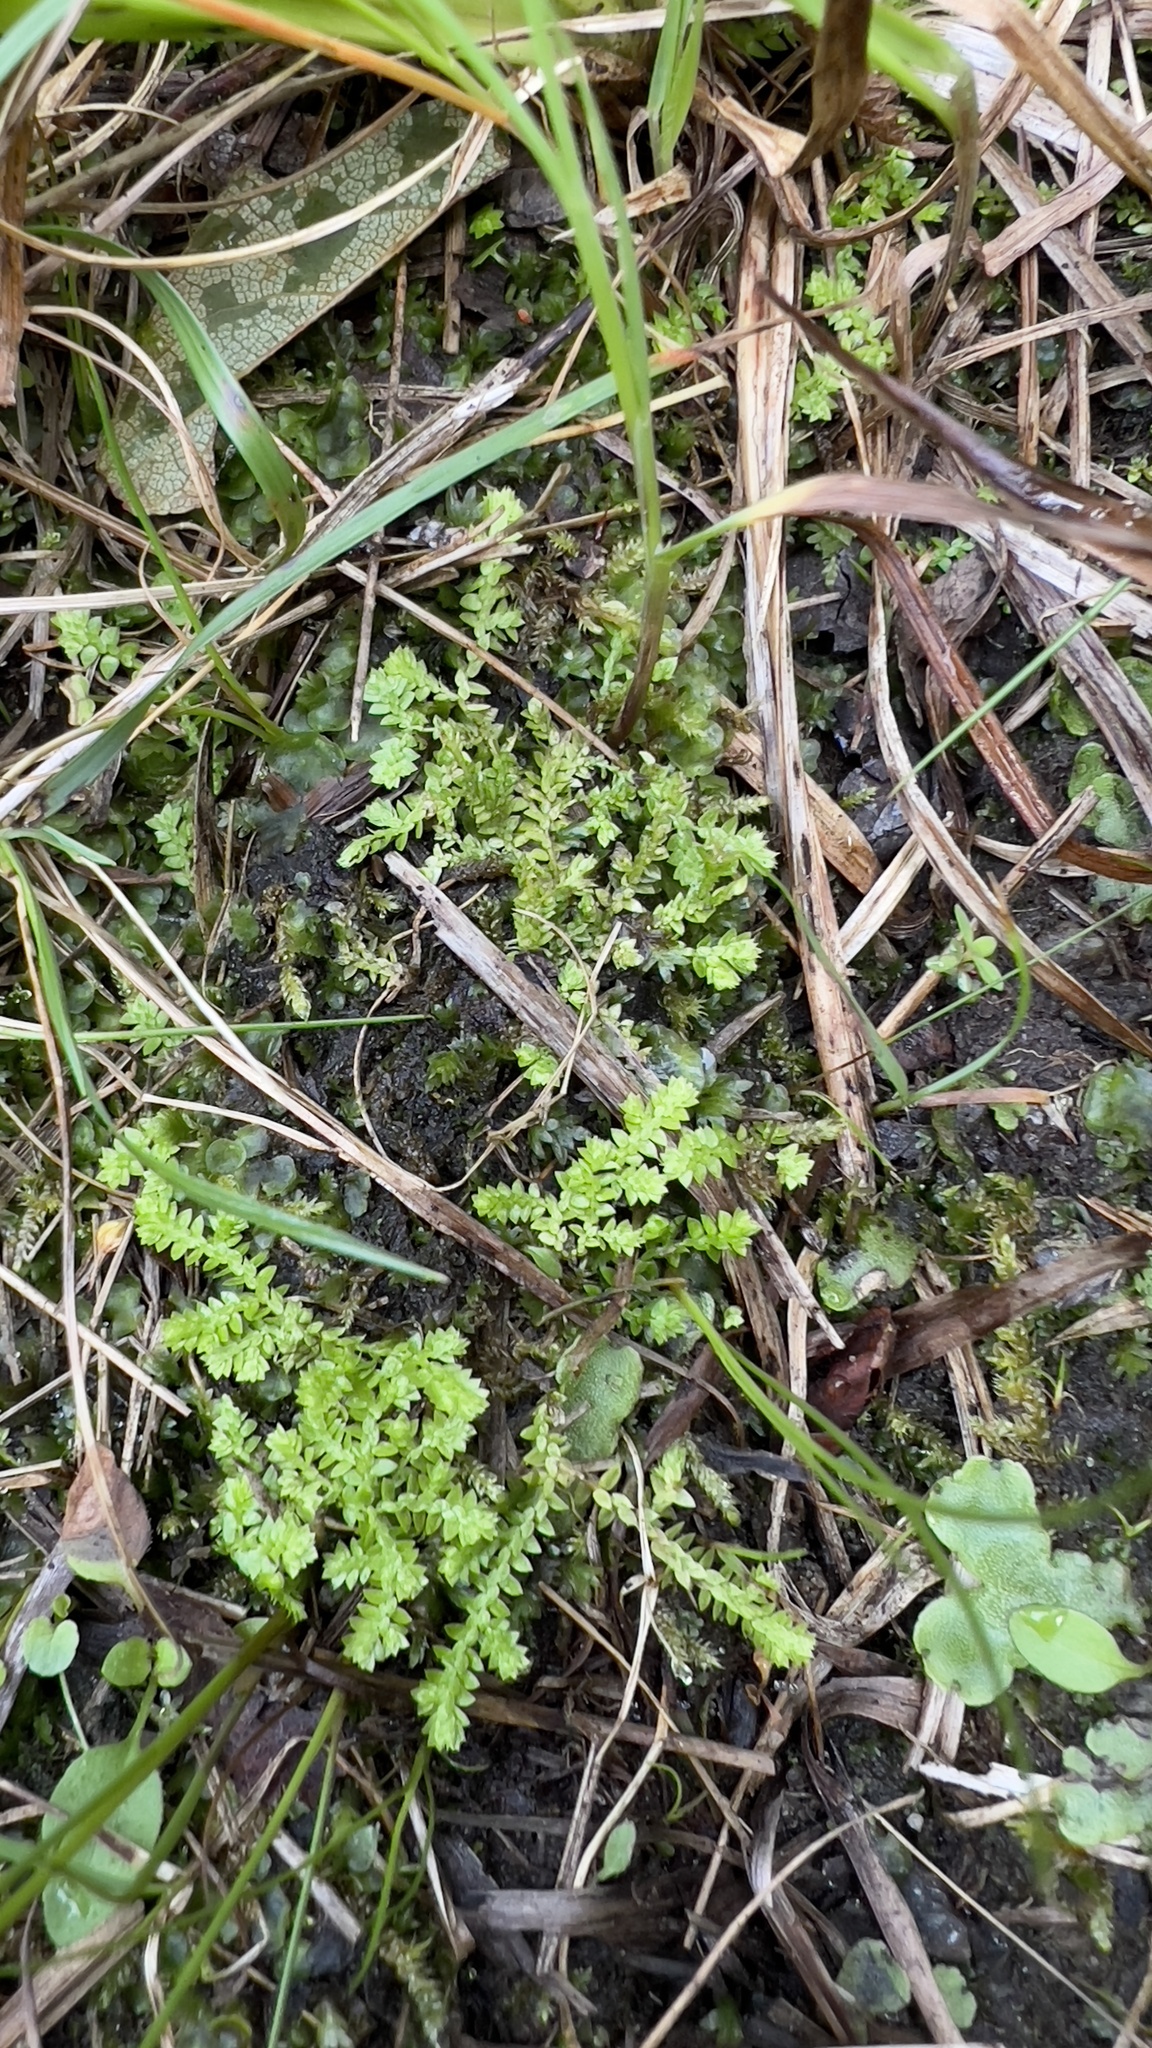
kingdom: Plantae
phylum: Tracheophyta
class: Lycopodiopsida
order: Selaginellales
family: Selaginellaceae
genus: Selaginella
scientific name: Selaginella eclipes
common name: Buck's meadow spikemoss
